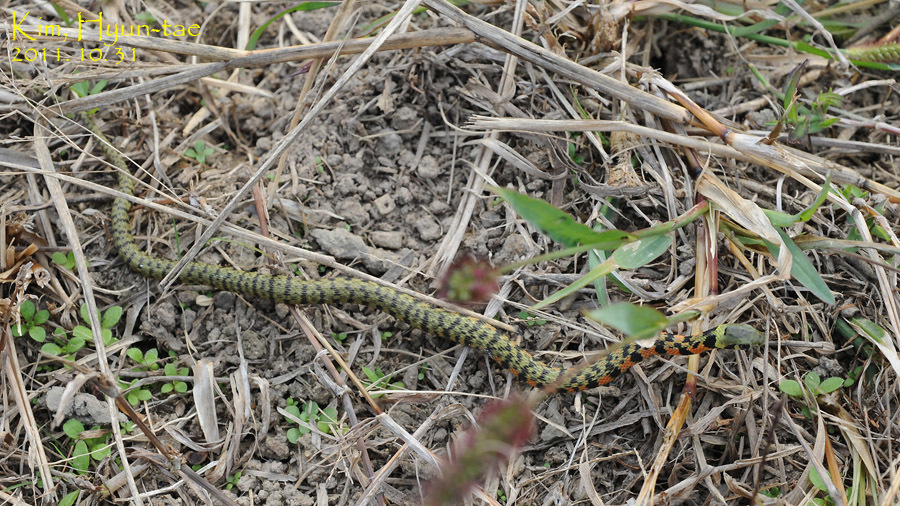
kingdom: Animalia
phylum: Chordata
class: Squamata
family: Colubridae
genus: Rhabdophis
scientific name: Rhabdophis tigrinus
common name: Tiger keelback
